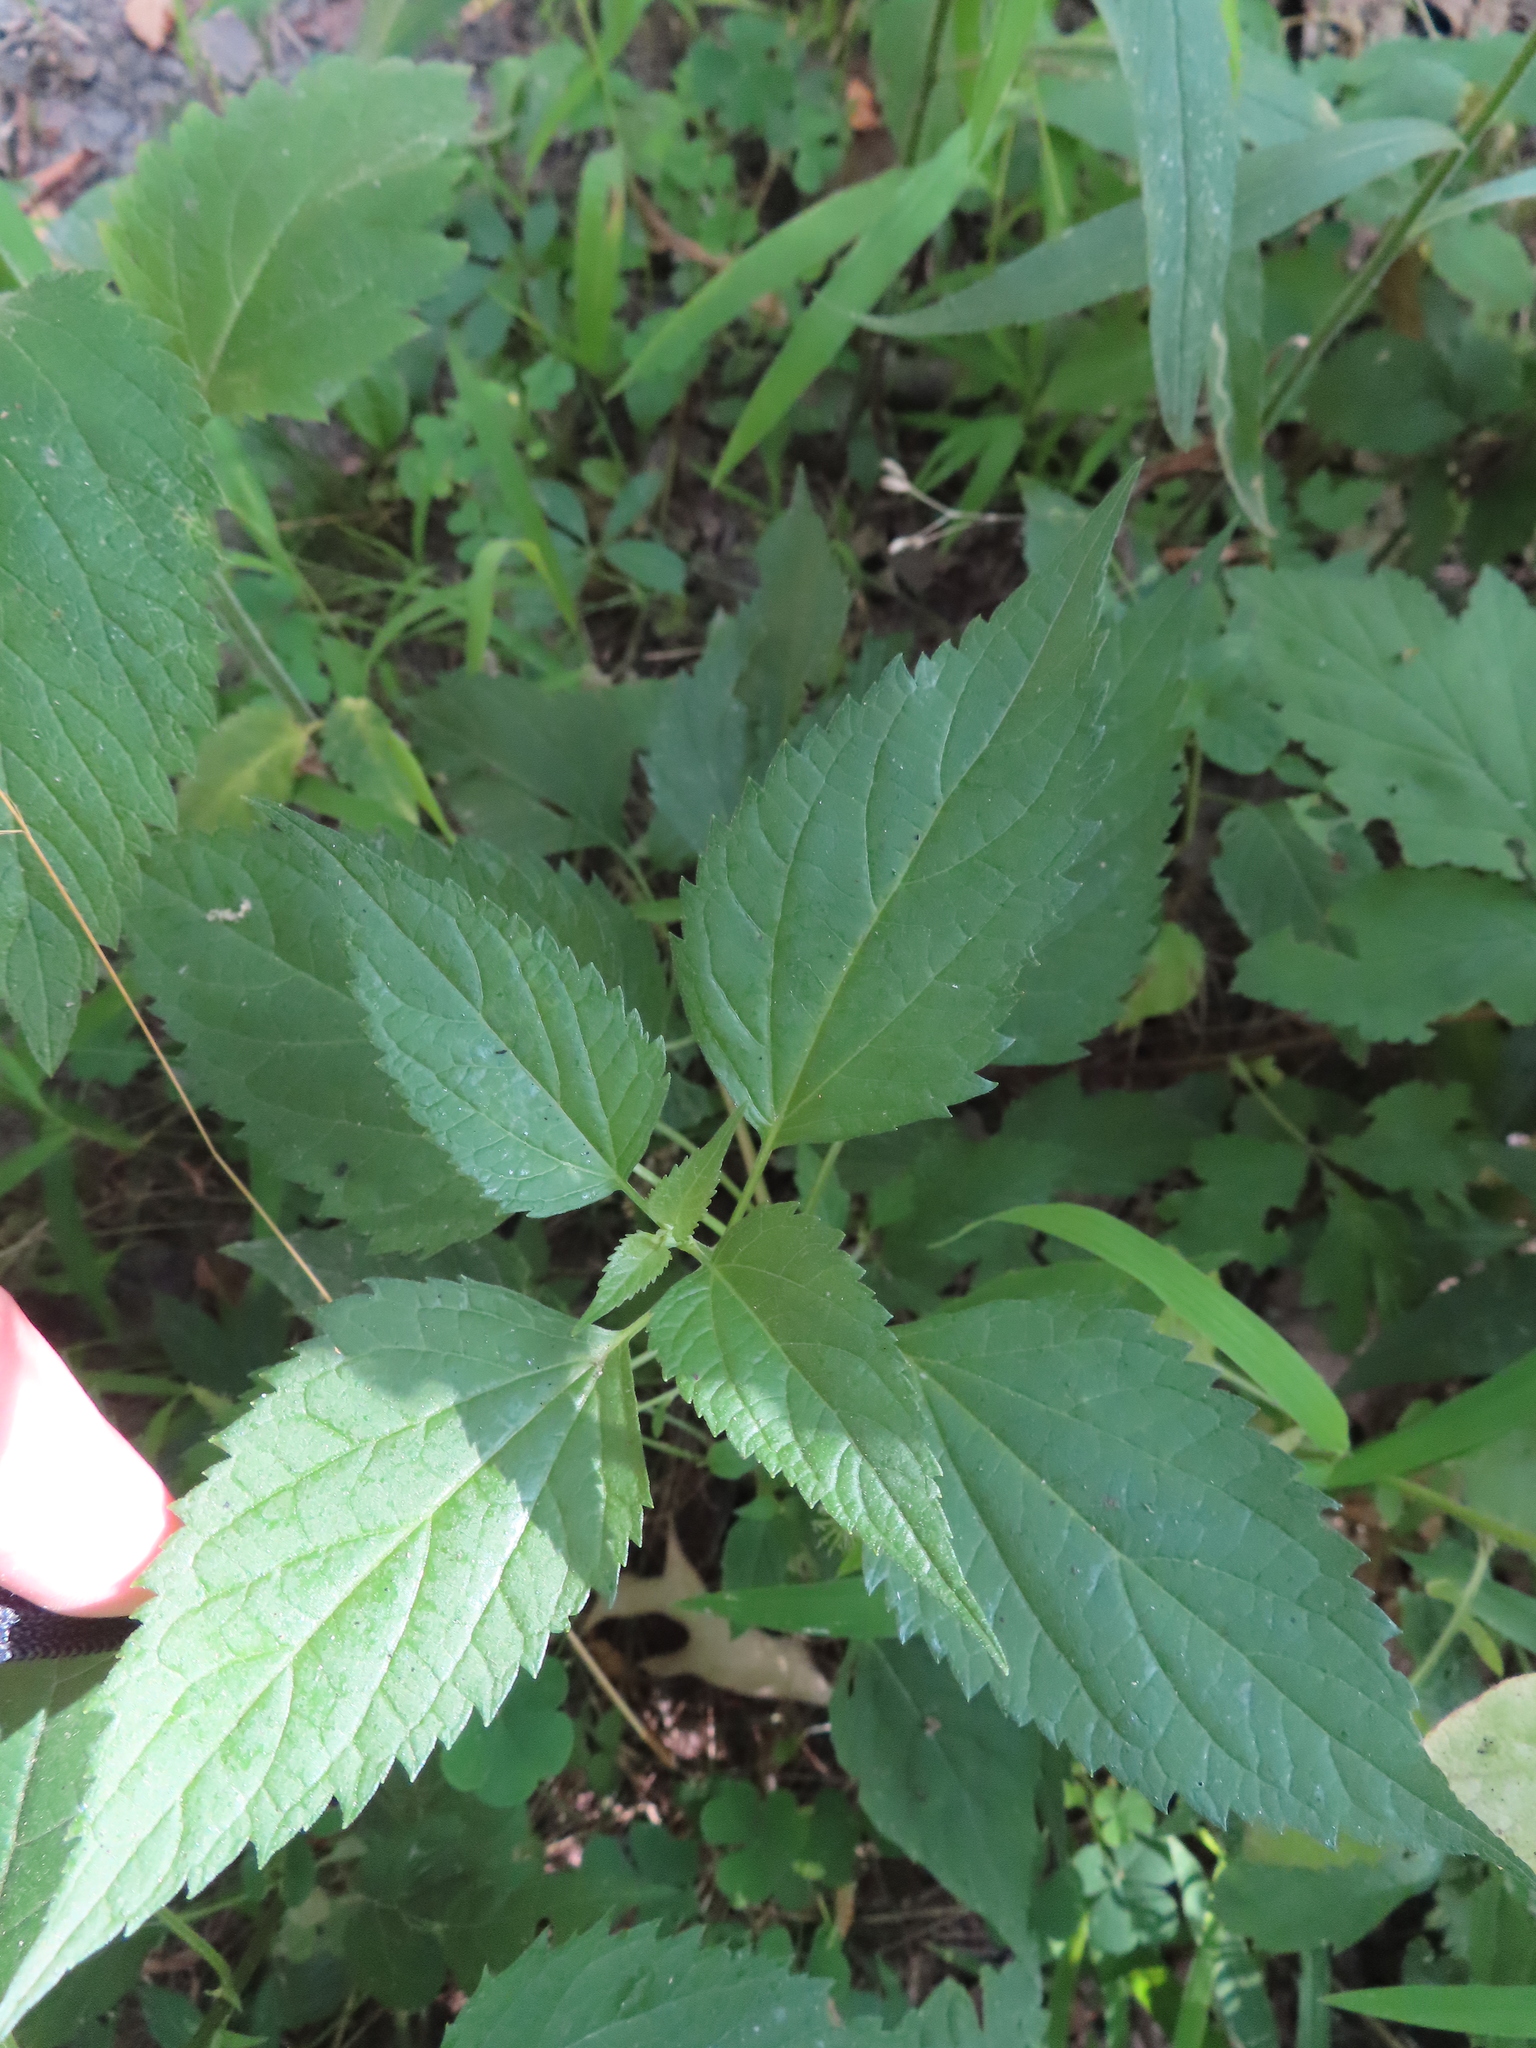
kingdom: Plantae
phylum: Tracheophyta
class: Magnoliopsida
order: Asterales
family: Asteraceae
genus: Ageratina
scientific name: Ageratina altissima
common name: White snakeroot
